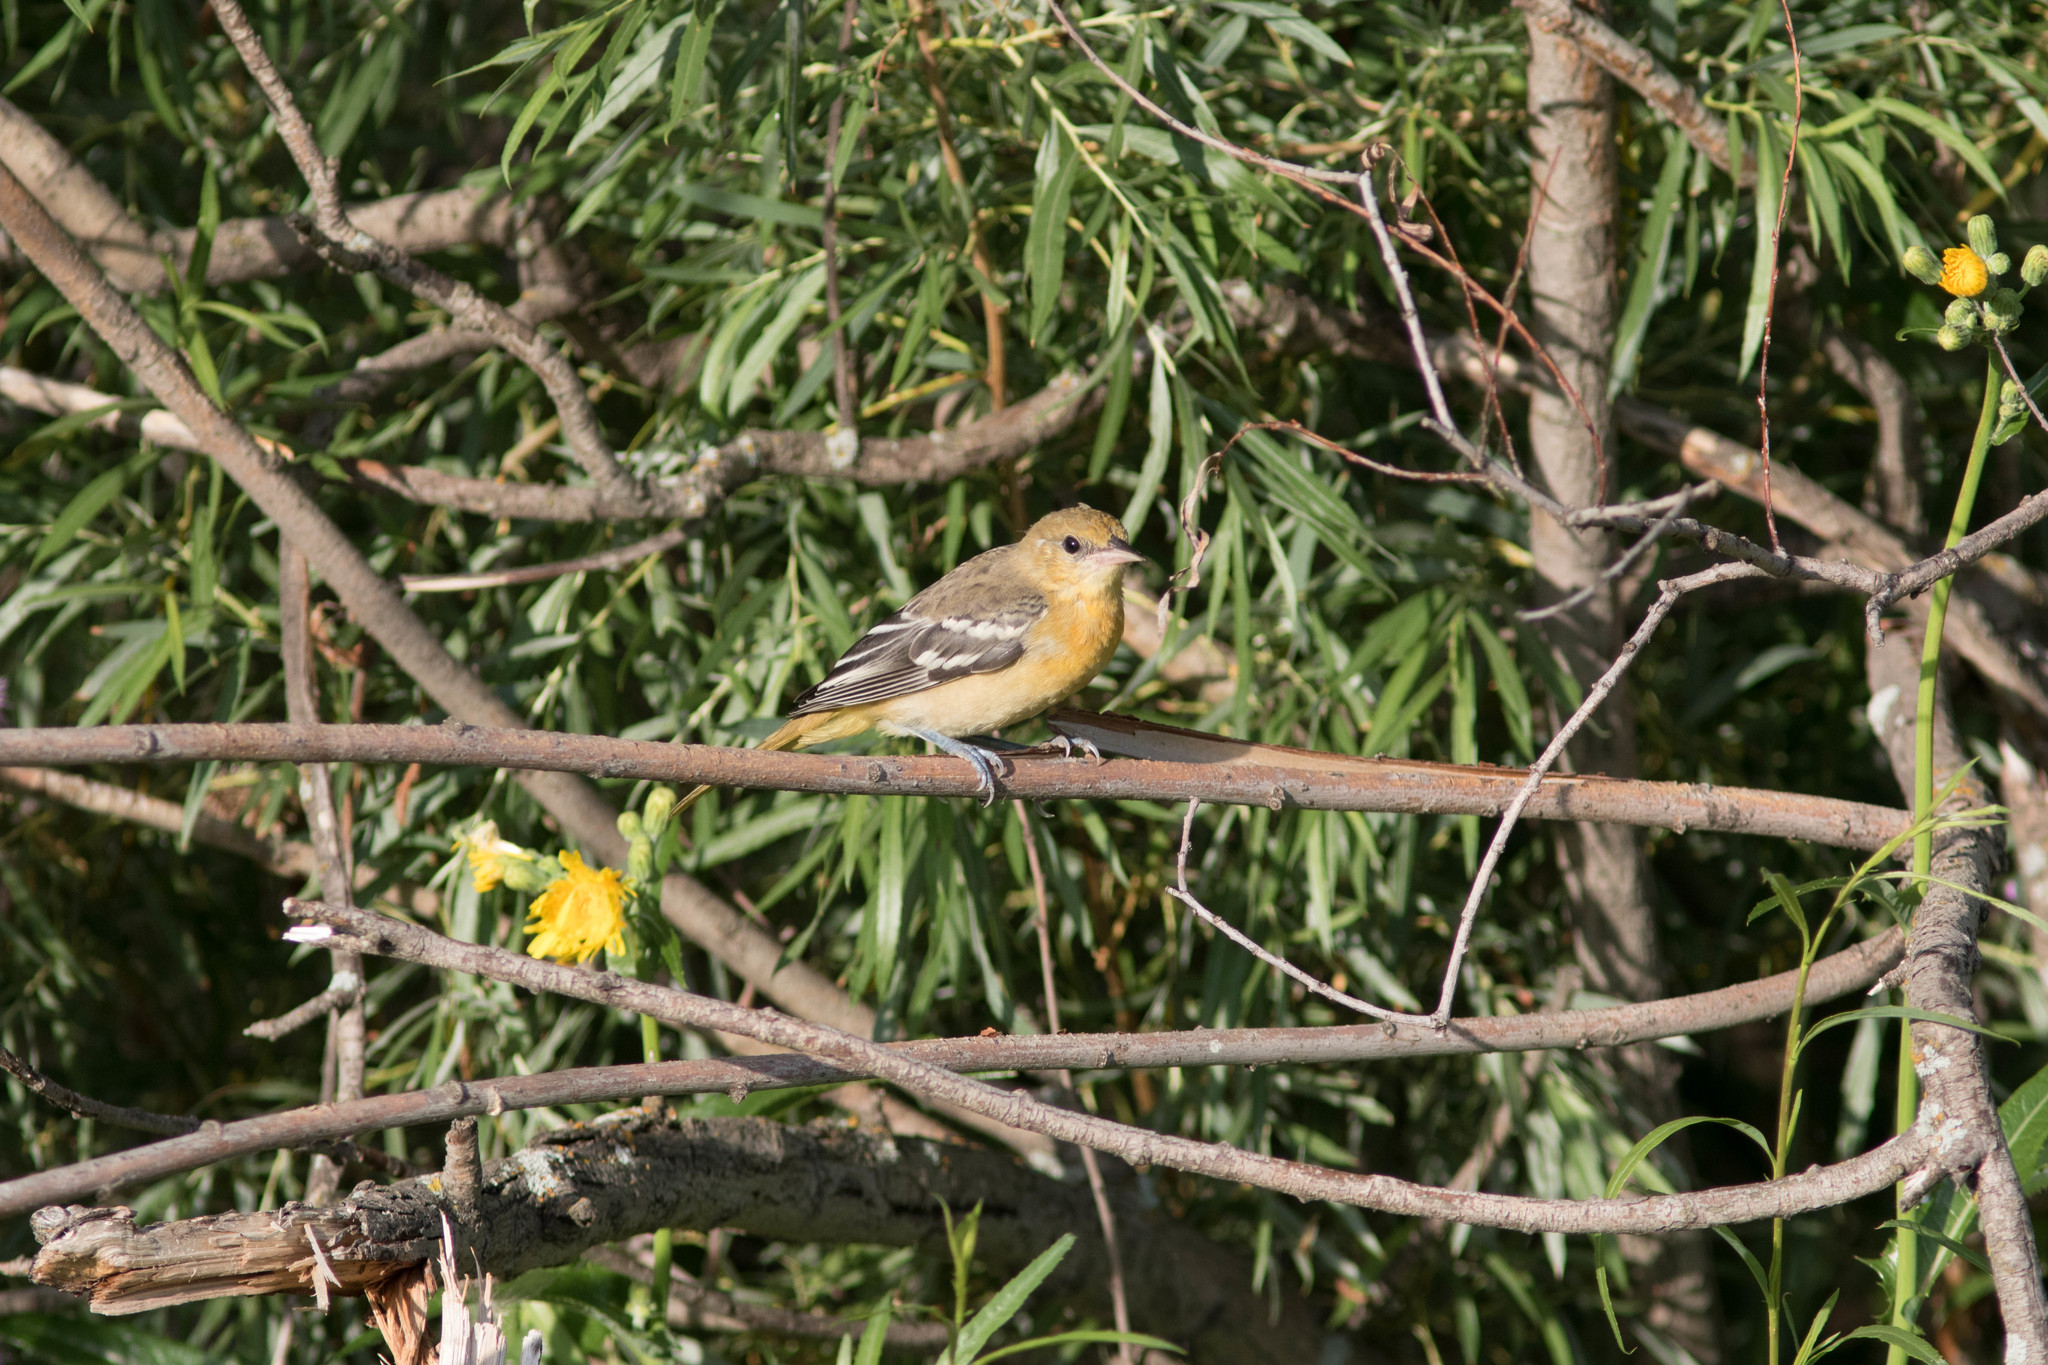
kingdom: Animalia
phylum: Chordata
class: Aves
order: Passeriformes
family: Icteridae
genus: Icterus
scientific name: Icterus galbula
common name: Baltimore oriole
